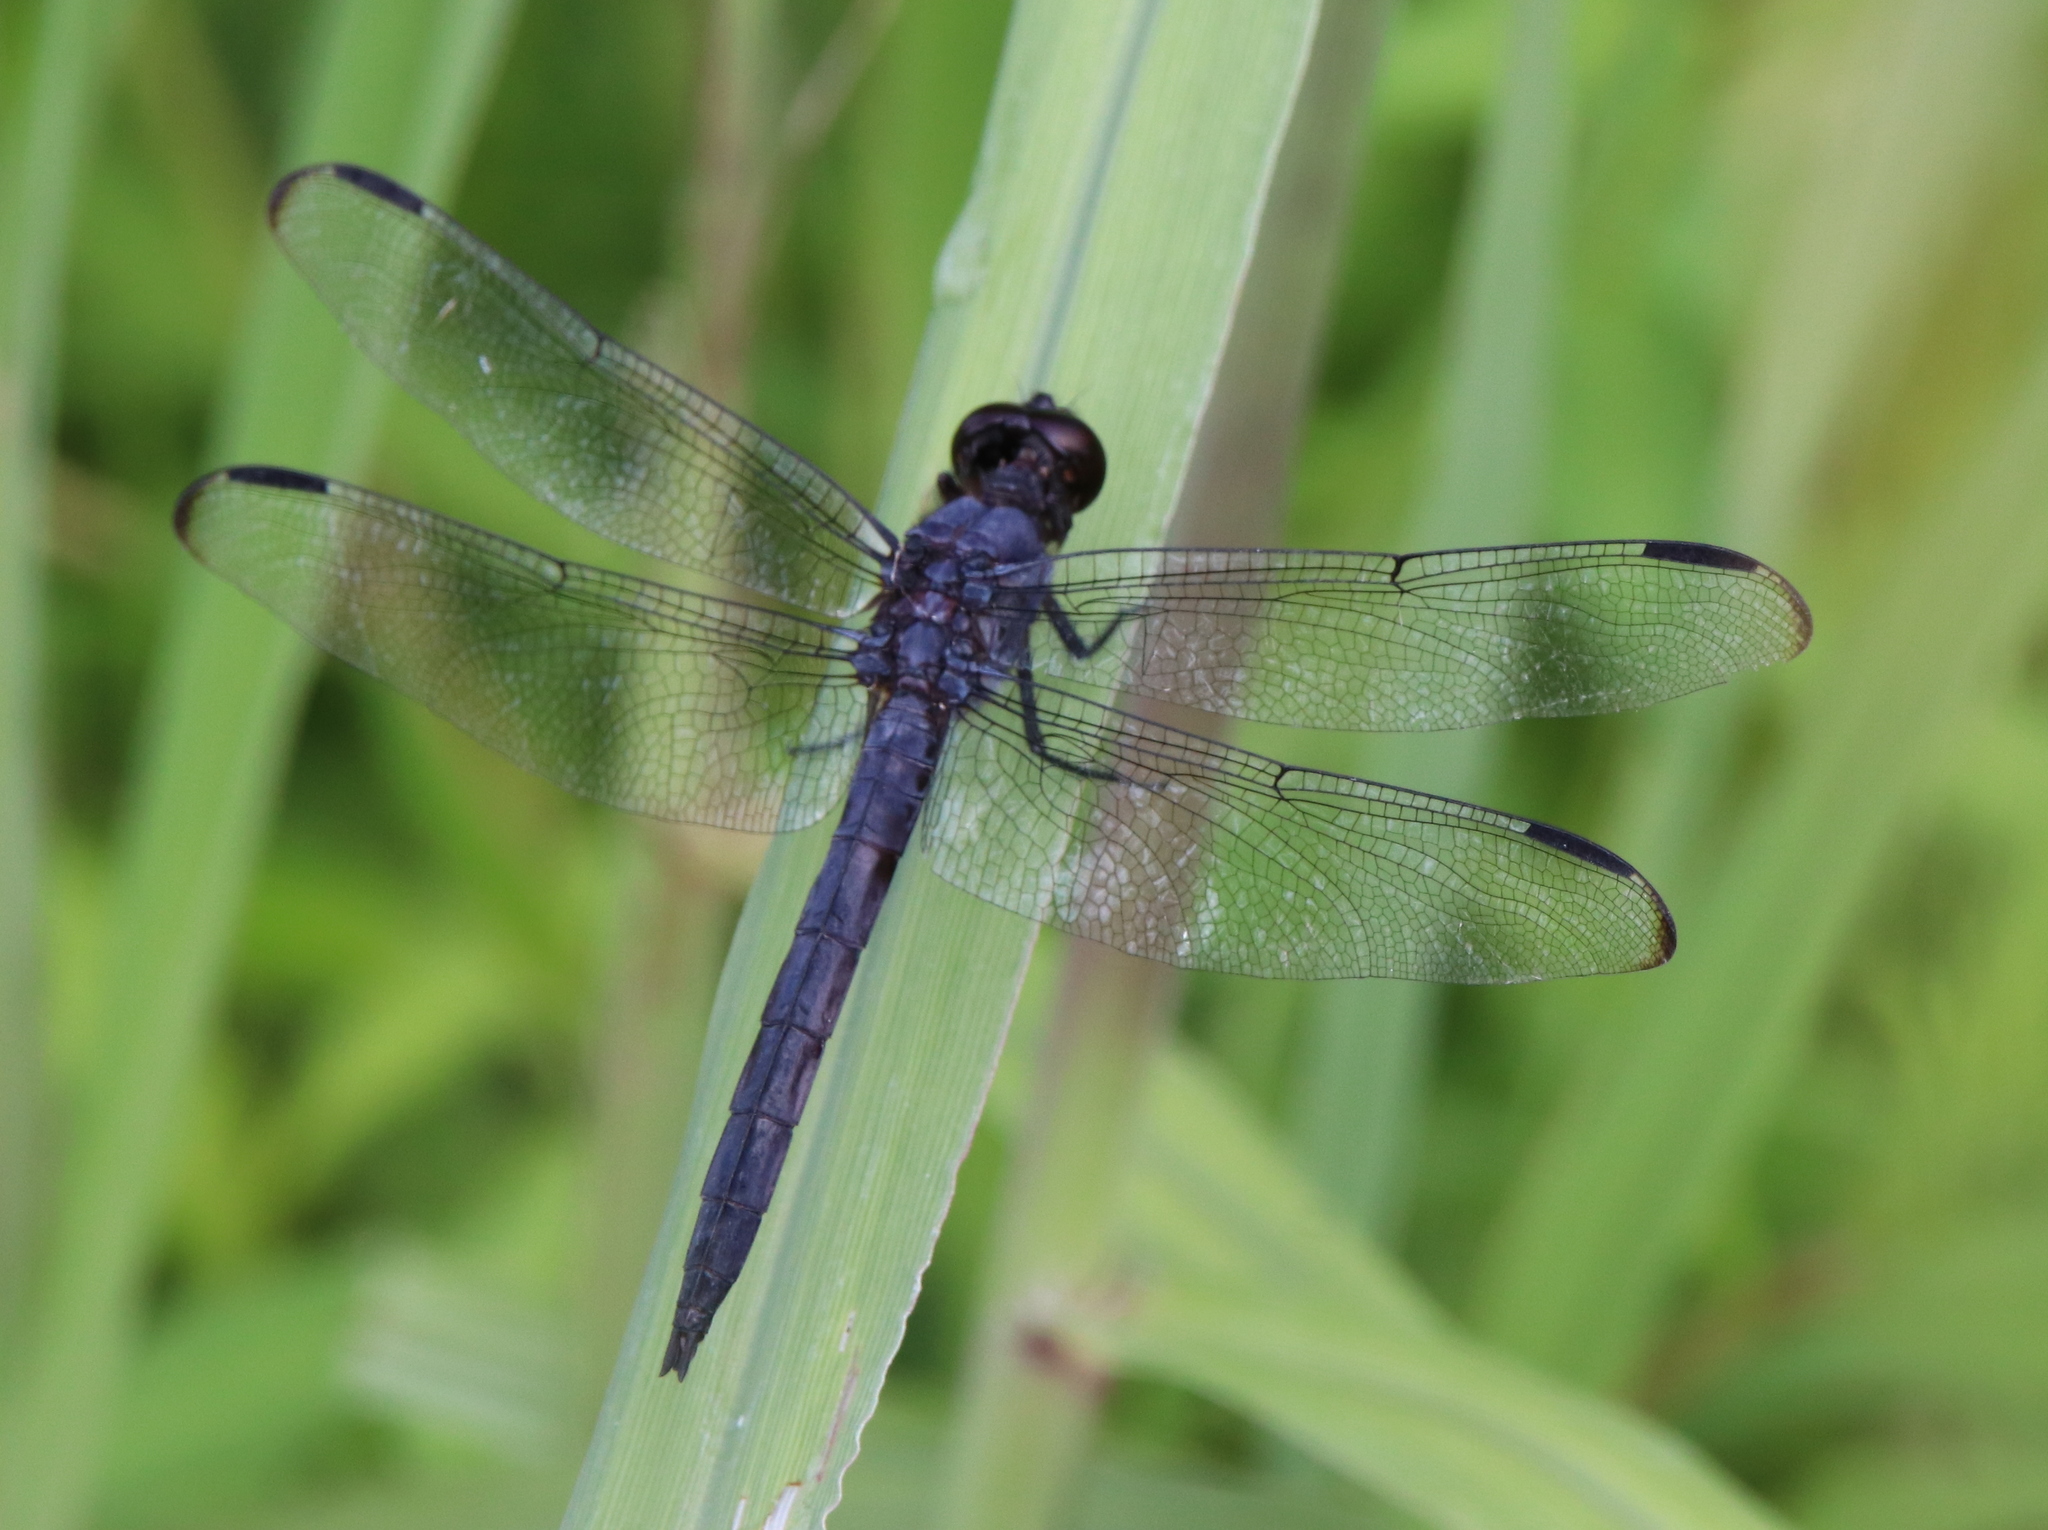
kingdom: Animalia
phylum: Arthropoda
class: Insecta
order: Odonata
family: Libellulidae
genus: Libellula
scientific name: Libellula incesta
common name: Slaty skimmer
